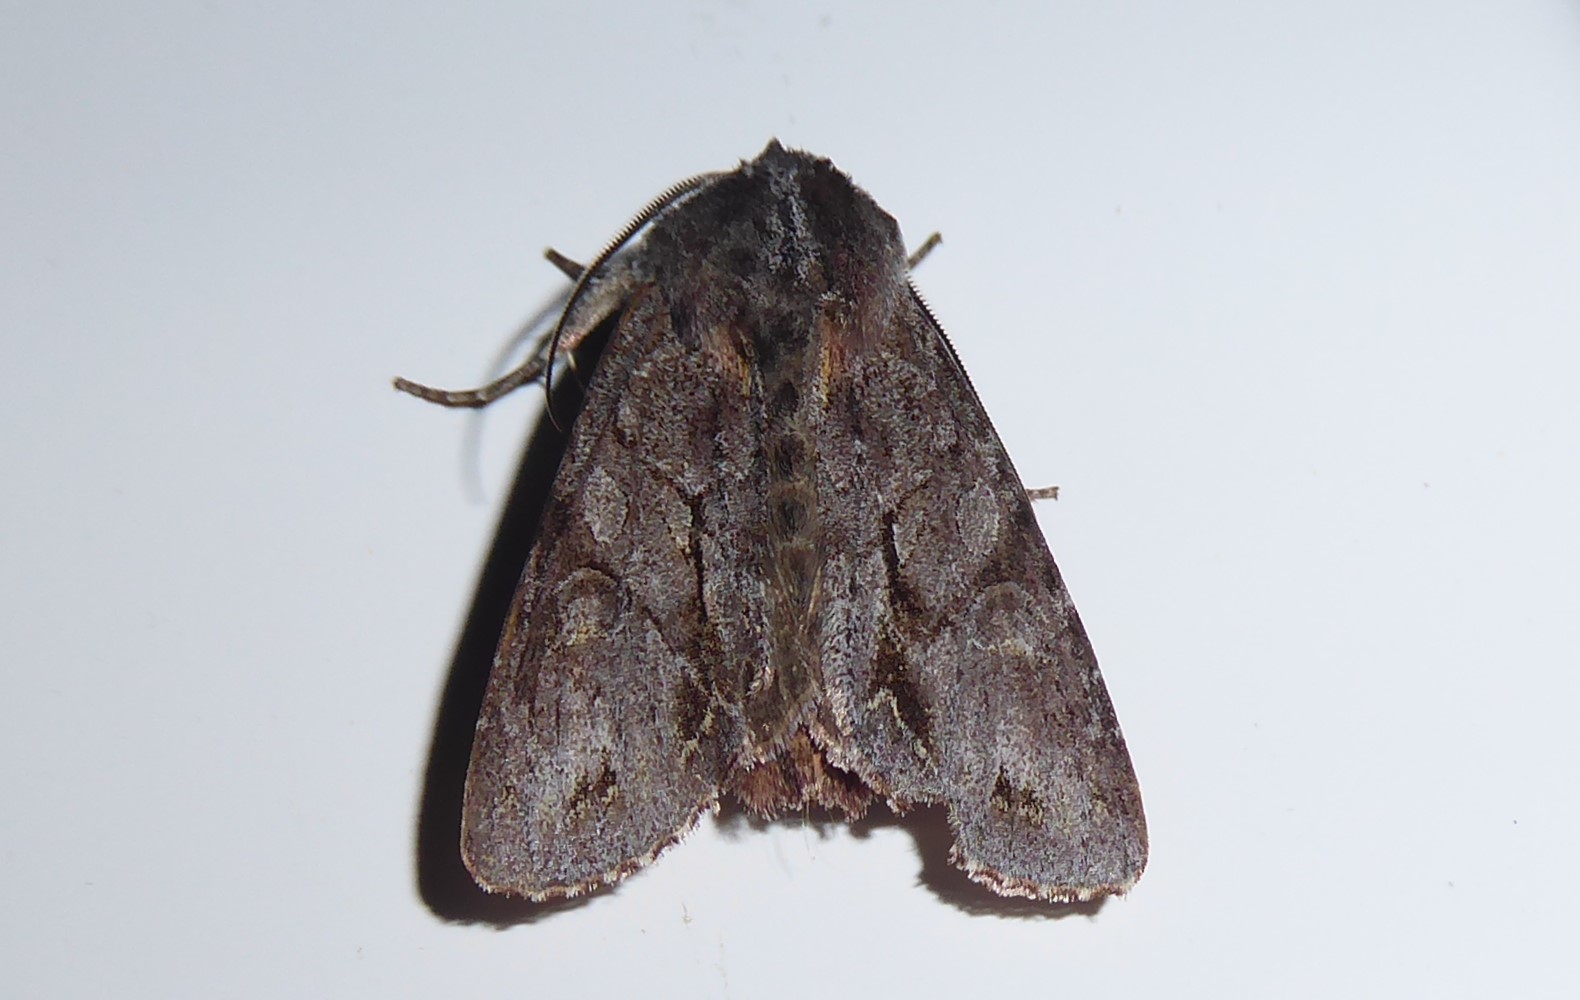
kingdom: Animalia
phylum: Arthropoda
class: Insecta
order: Lepidoptera
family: Noctuidae
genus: Ichneutica
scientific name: Ichneutica
